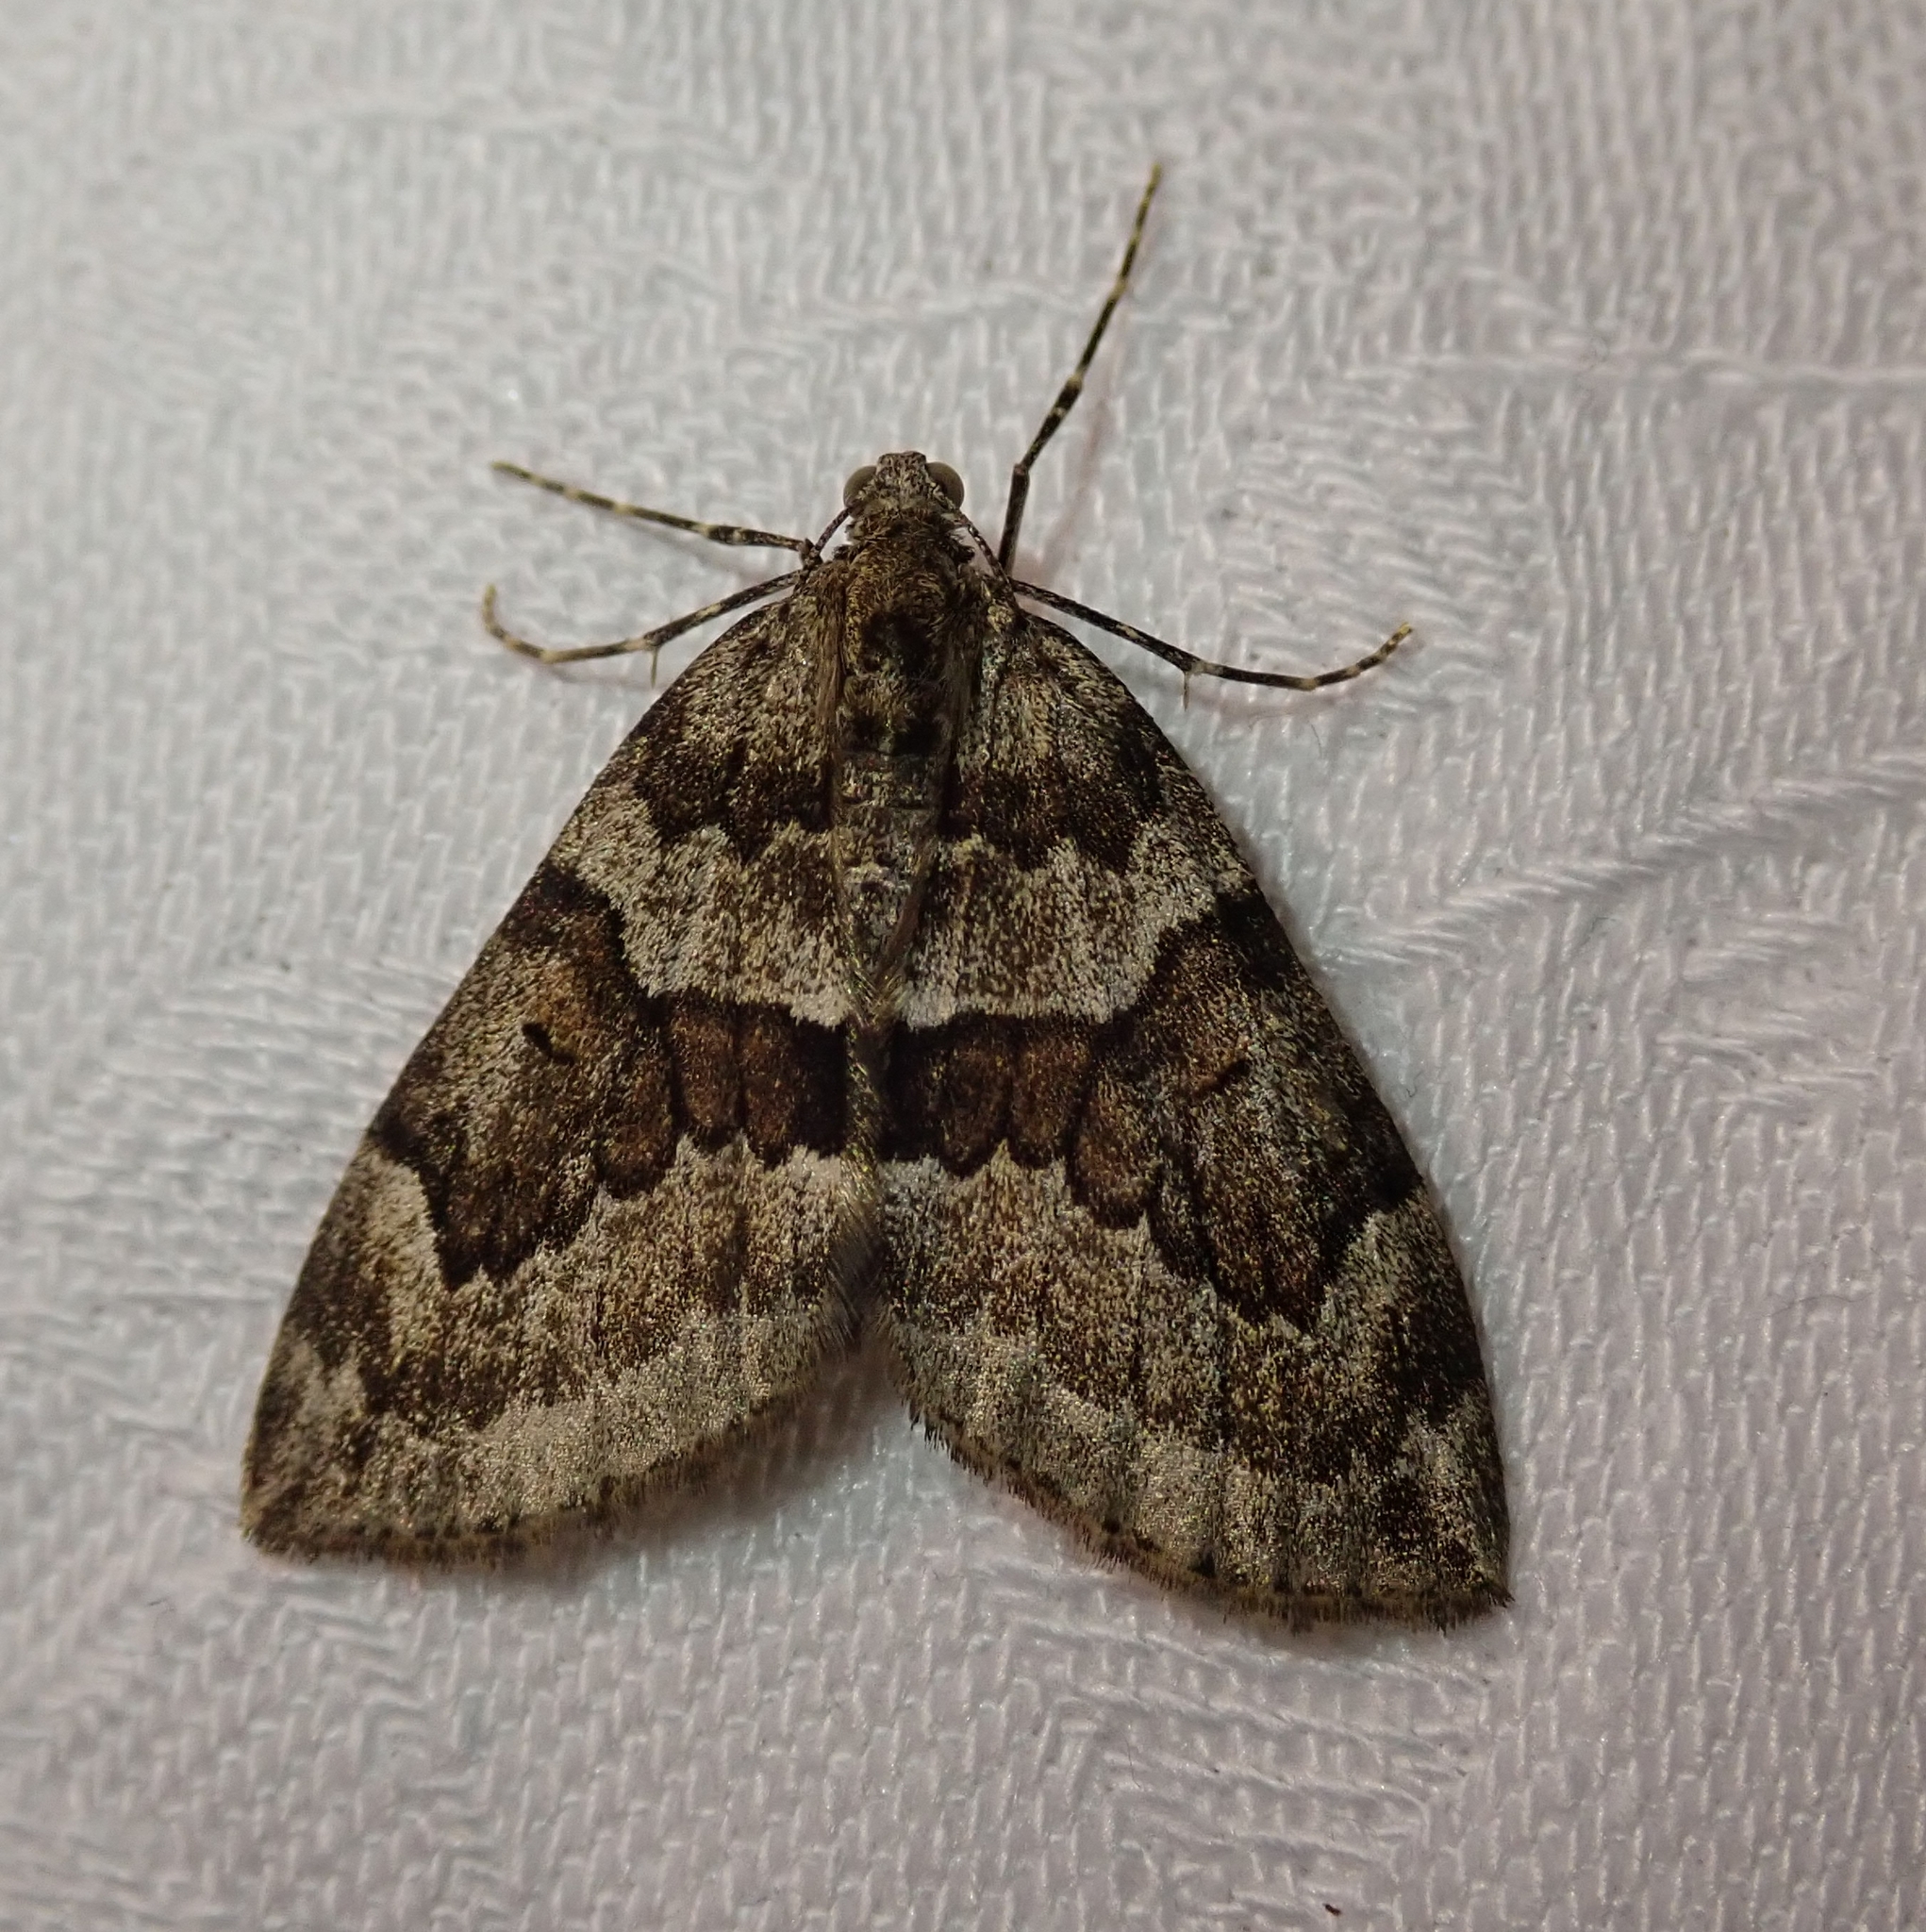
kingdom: Animalia
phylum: Arthropoda
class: Insecta
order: Lepidoptera
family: Geometridae
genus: Thera
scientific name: Thera juniperata
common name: Juniper carpet
